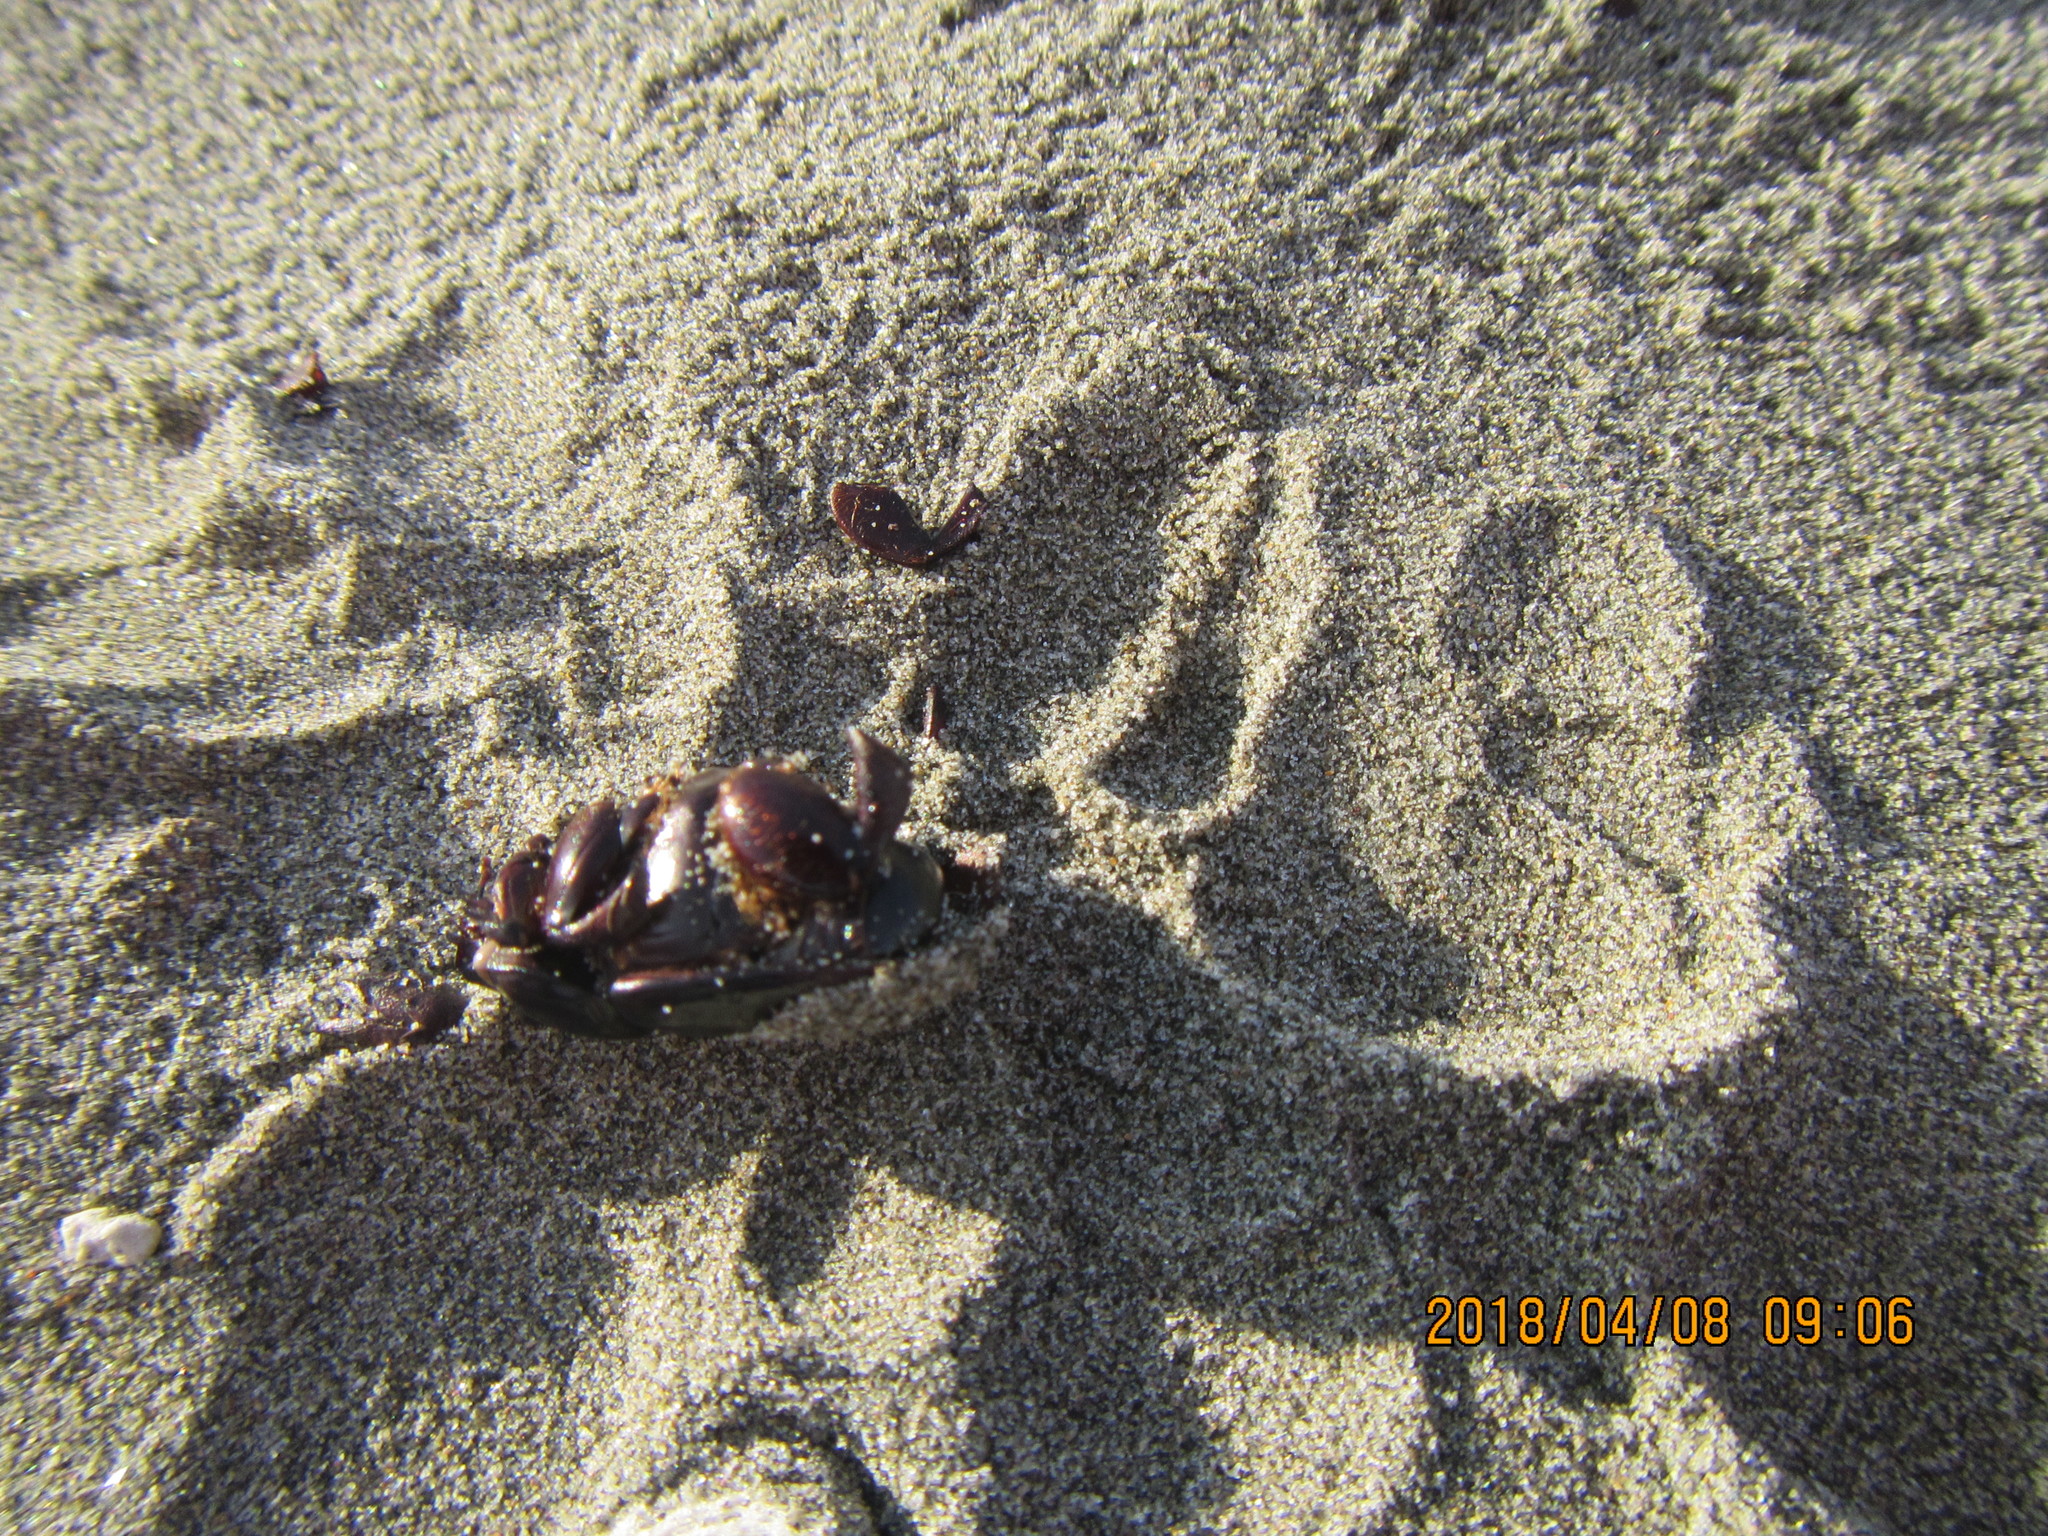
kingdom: Animalia
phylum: Arthropoda
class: Insecta
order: Coleoptera
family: Scarabaeidae
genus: Pericoptus
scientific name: Pericoptus truncatus
